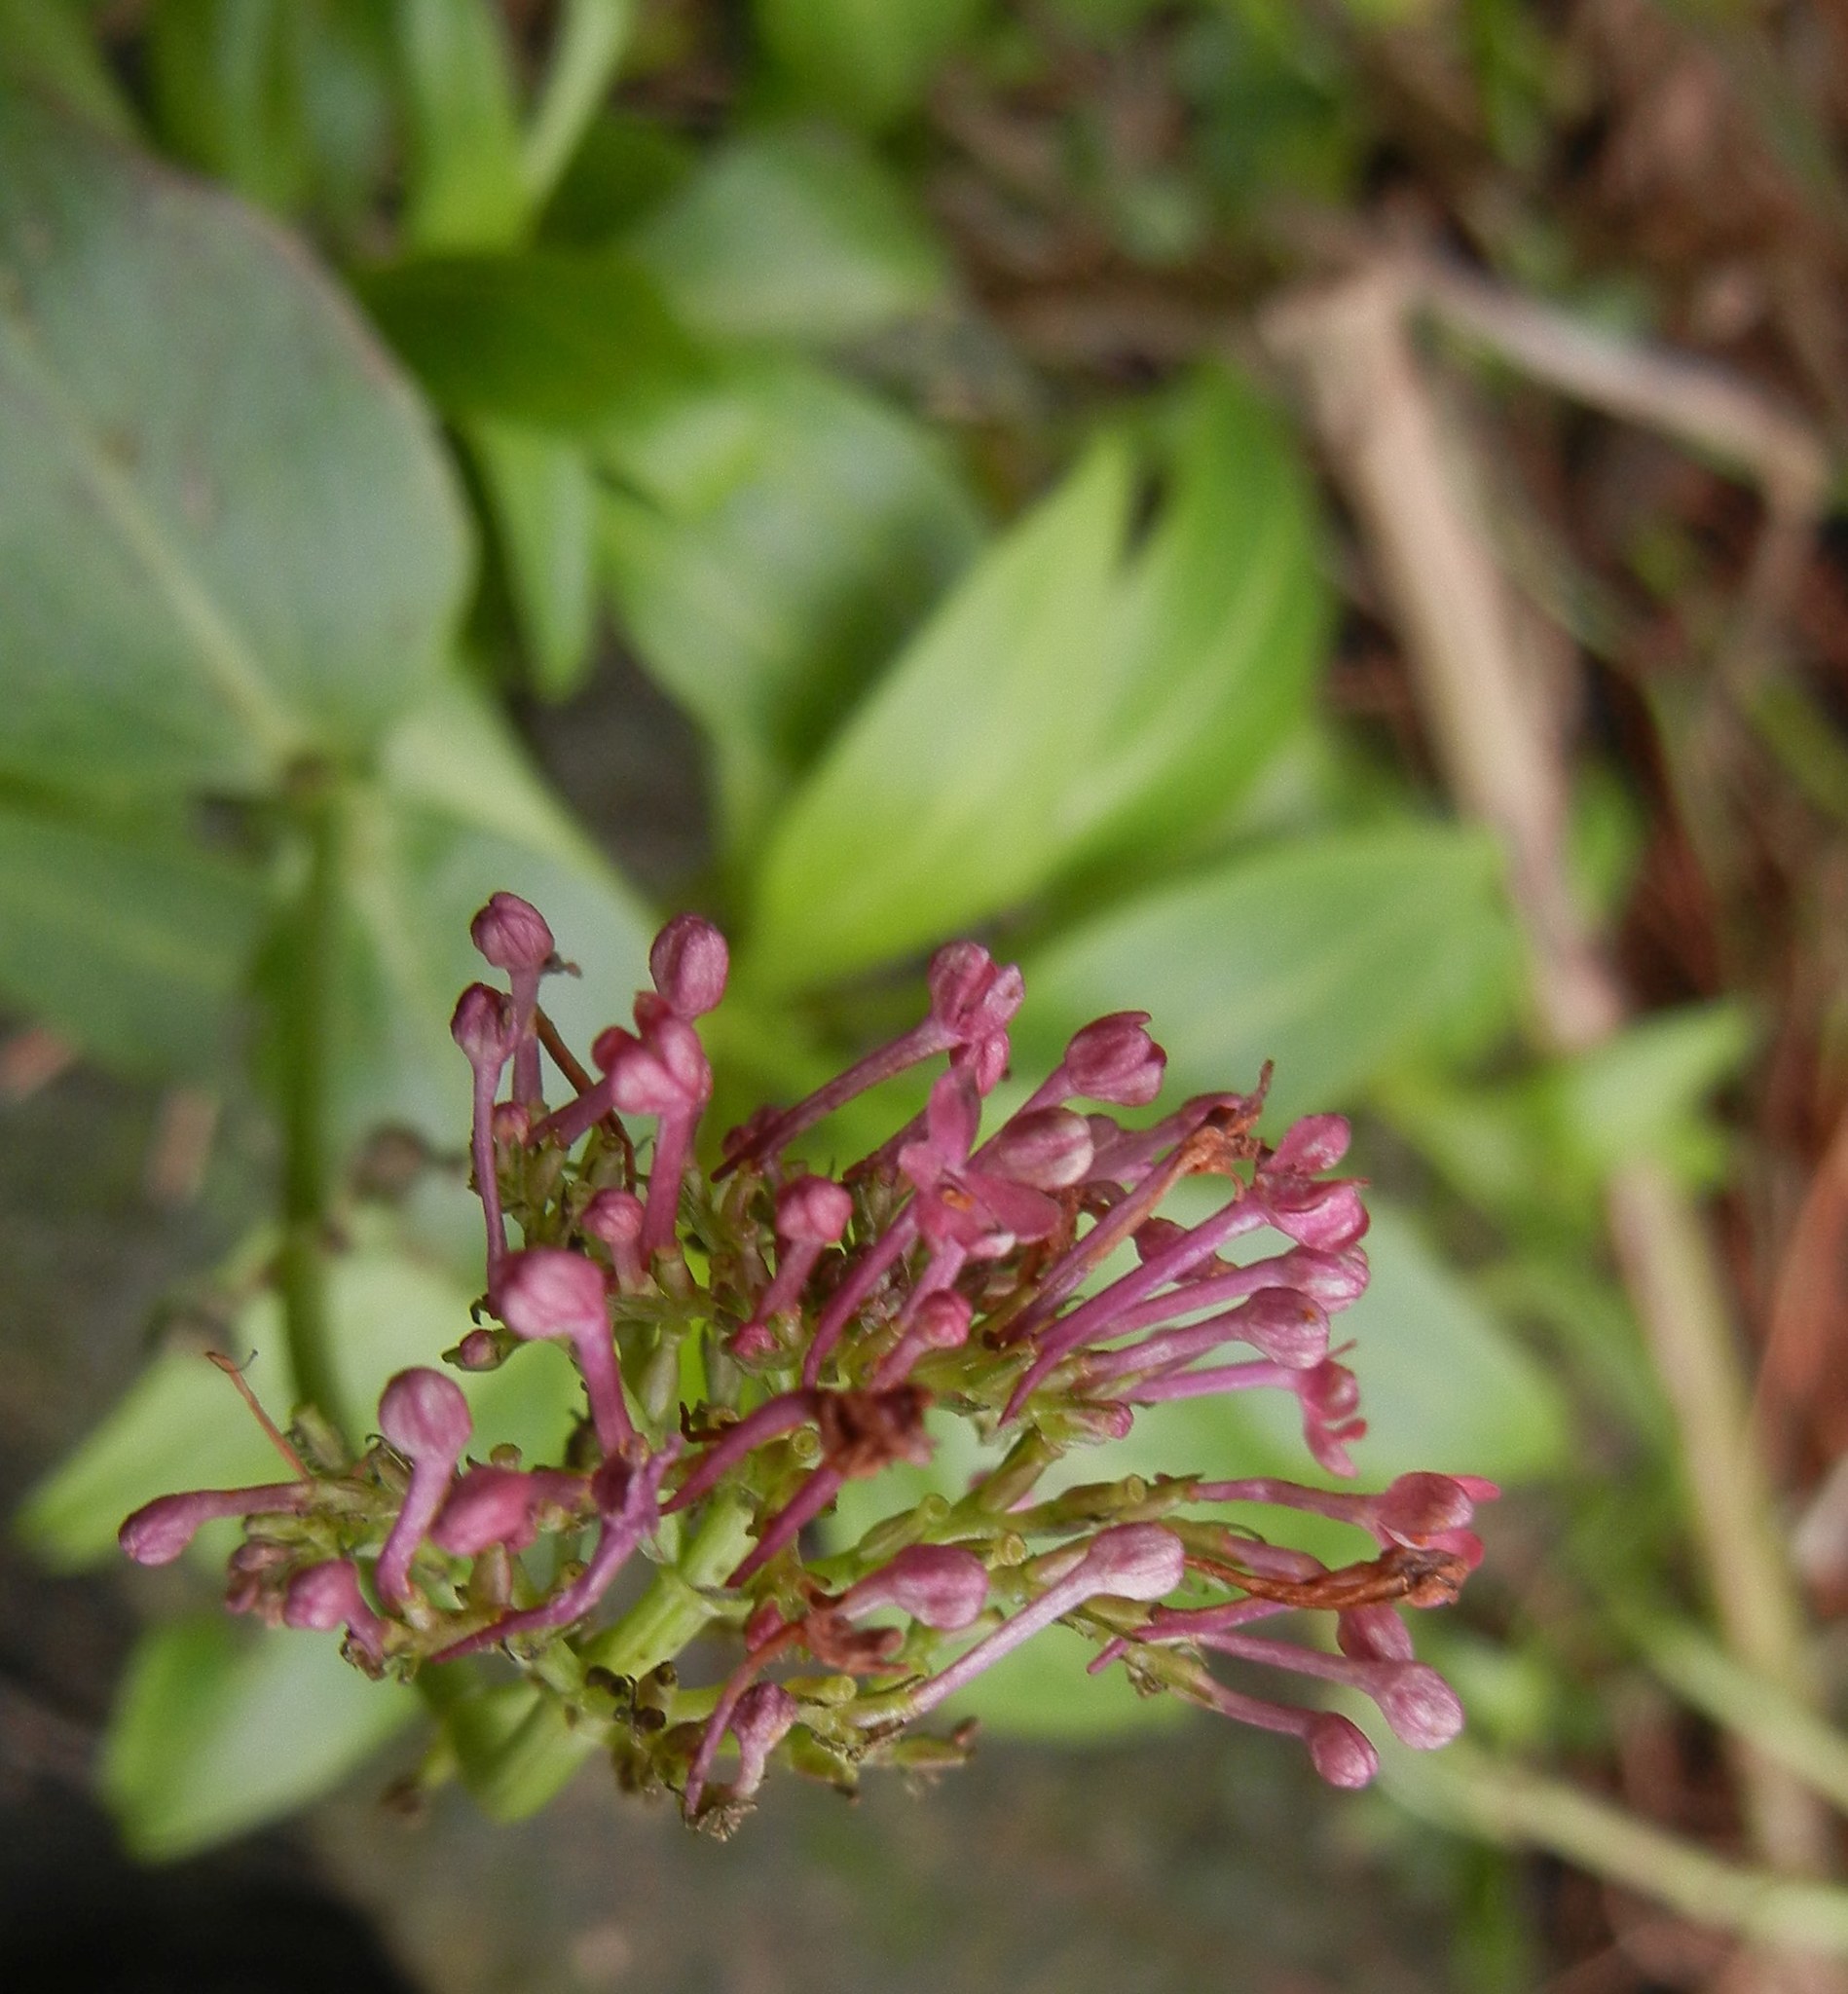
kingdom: Plantae
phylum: Tracheophyta
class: Magnoliopsida
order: Dipsacales
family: Caprifoliaceae
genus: Centranthus
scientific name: Centranthus ruber
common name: Red valerian
